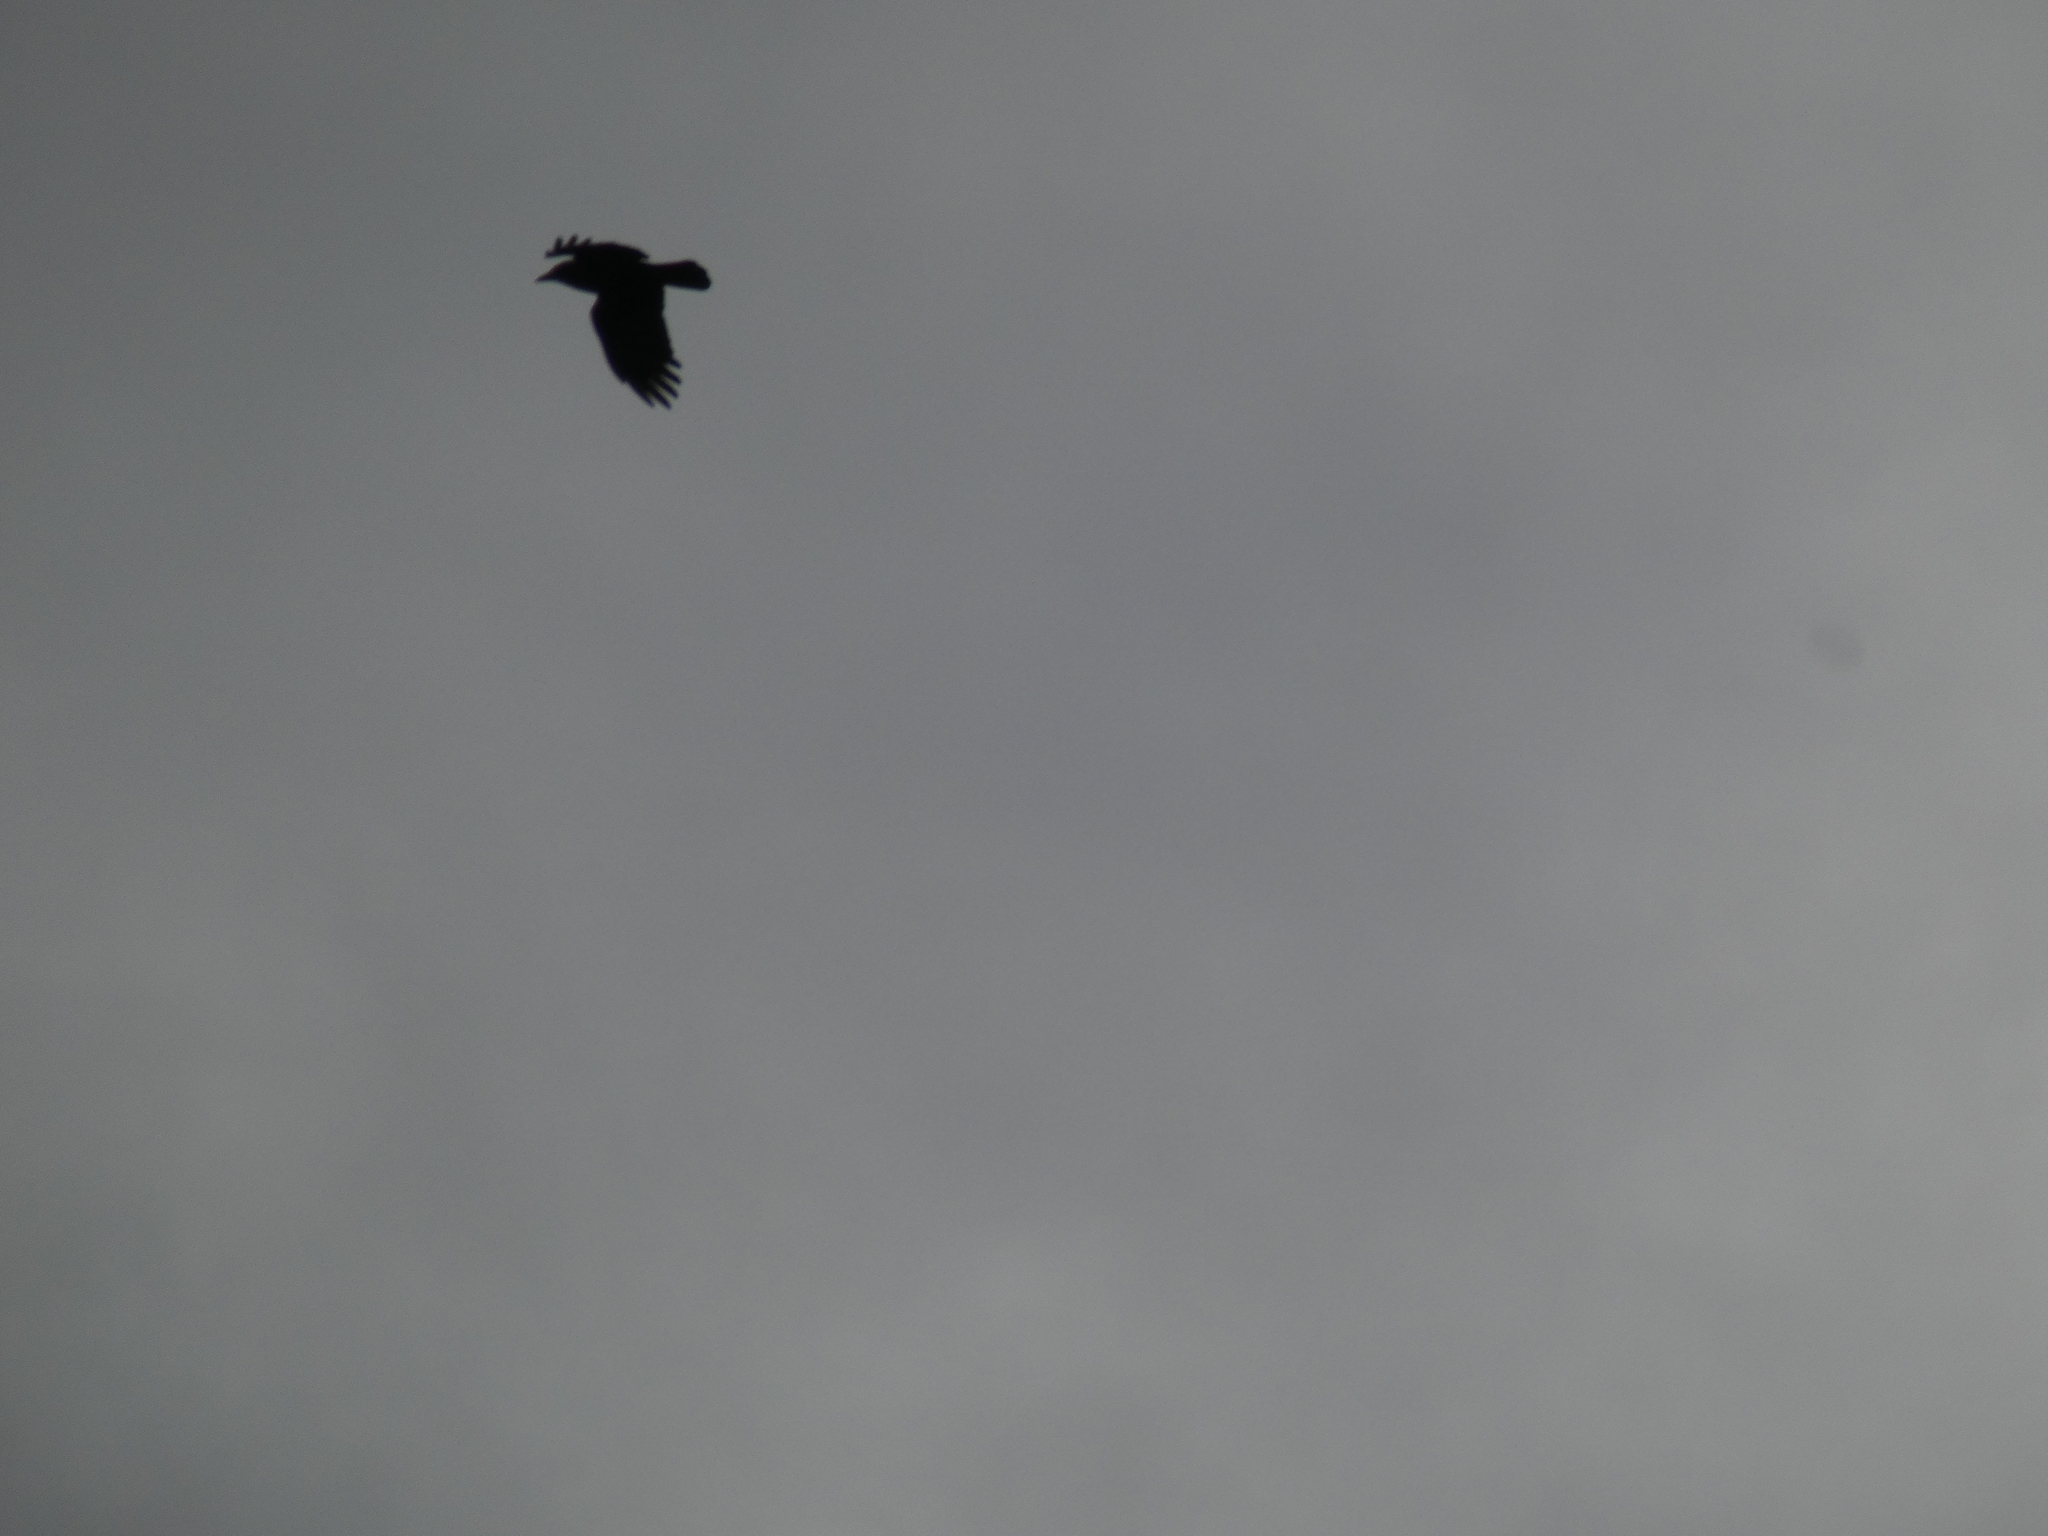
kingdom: Animalia
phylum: Chordata
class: Aves
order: Passeriformes
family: Corvidae
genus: Corvus
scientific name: Corvus brachyrhynchos
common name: American crow
